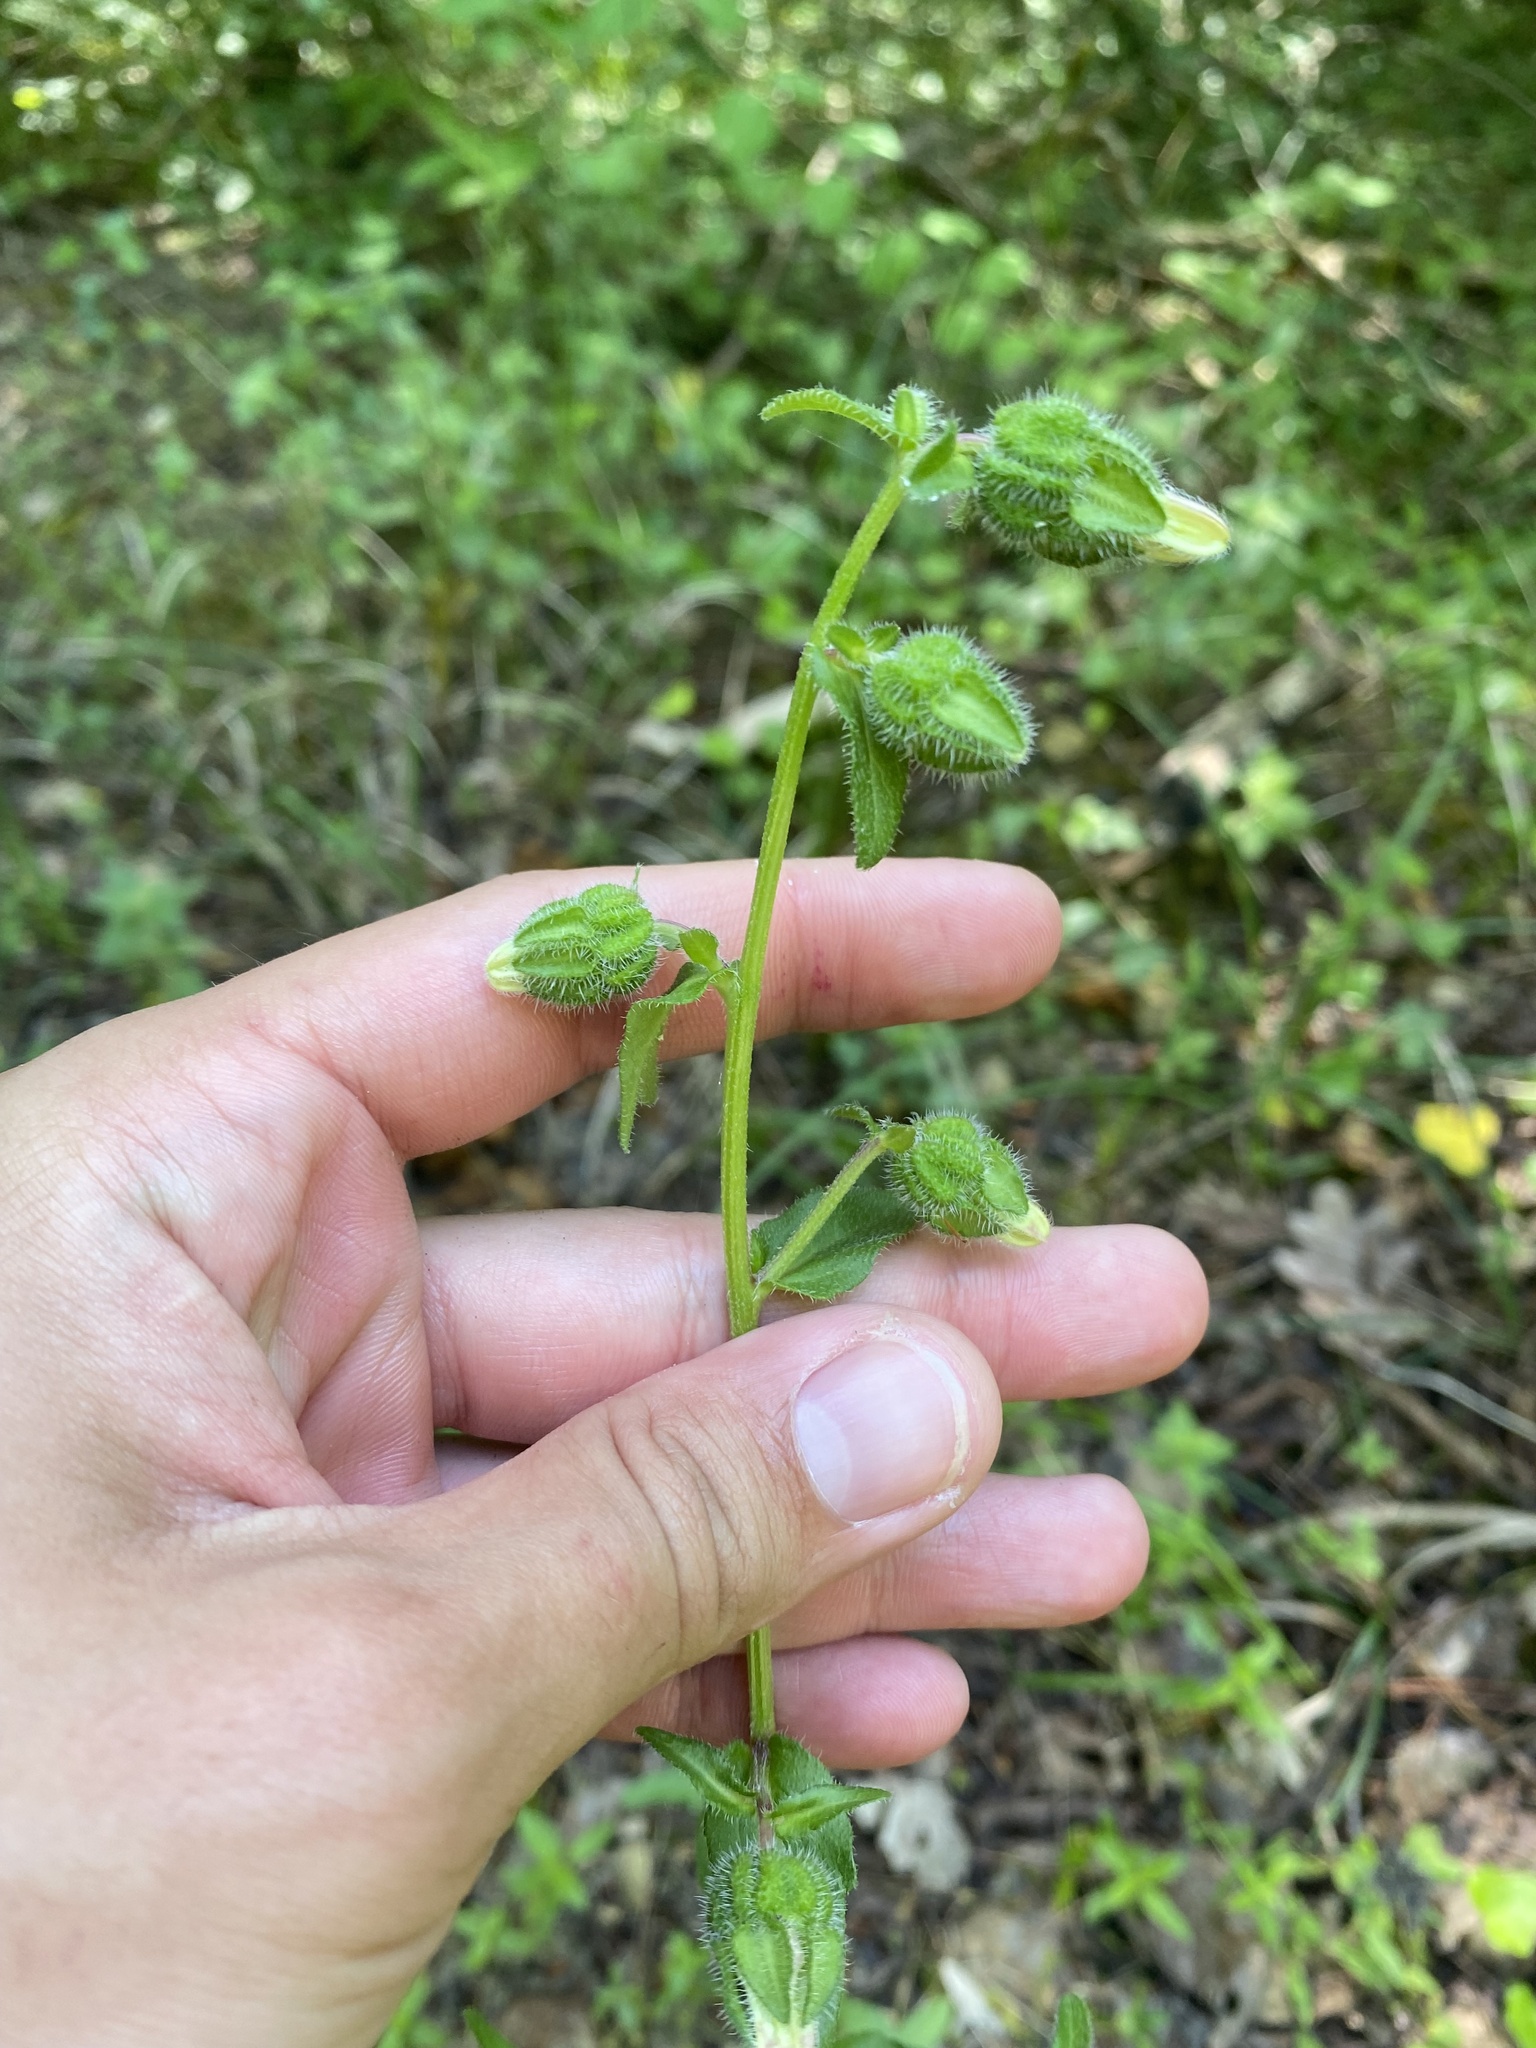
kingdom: Plantae
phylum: Tracheophyta
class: Magnoliopsida
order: Asterales
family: Campanulaceae
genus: Campanula
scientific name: Campanula komarovii
